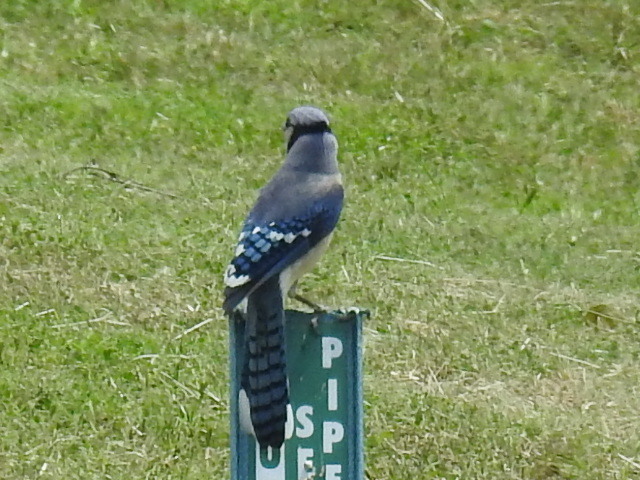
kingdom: Animalia
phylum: Chordata
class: Aves
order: Passeriformes
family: Corvidae
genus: Cyanocitta
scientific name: Cyanocitta cristata
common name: Blue jay
